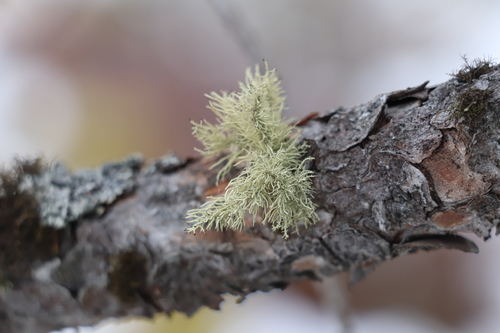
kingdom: Fungi
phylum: Ascomycota
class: Lecanoromycetes
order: Lecanorales
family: Parmeliaceae
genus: Usnea
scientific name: Usnea
